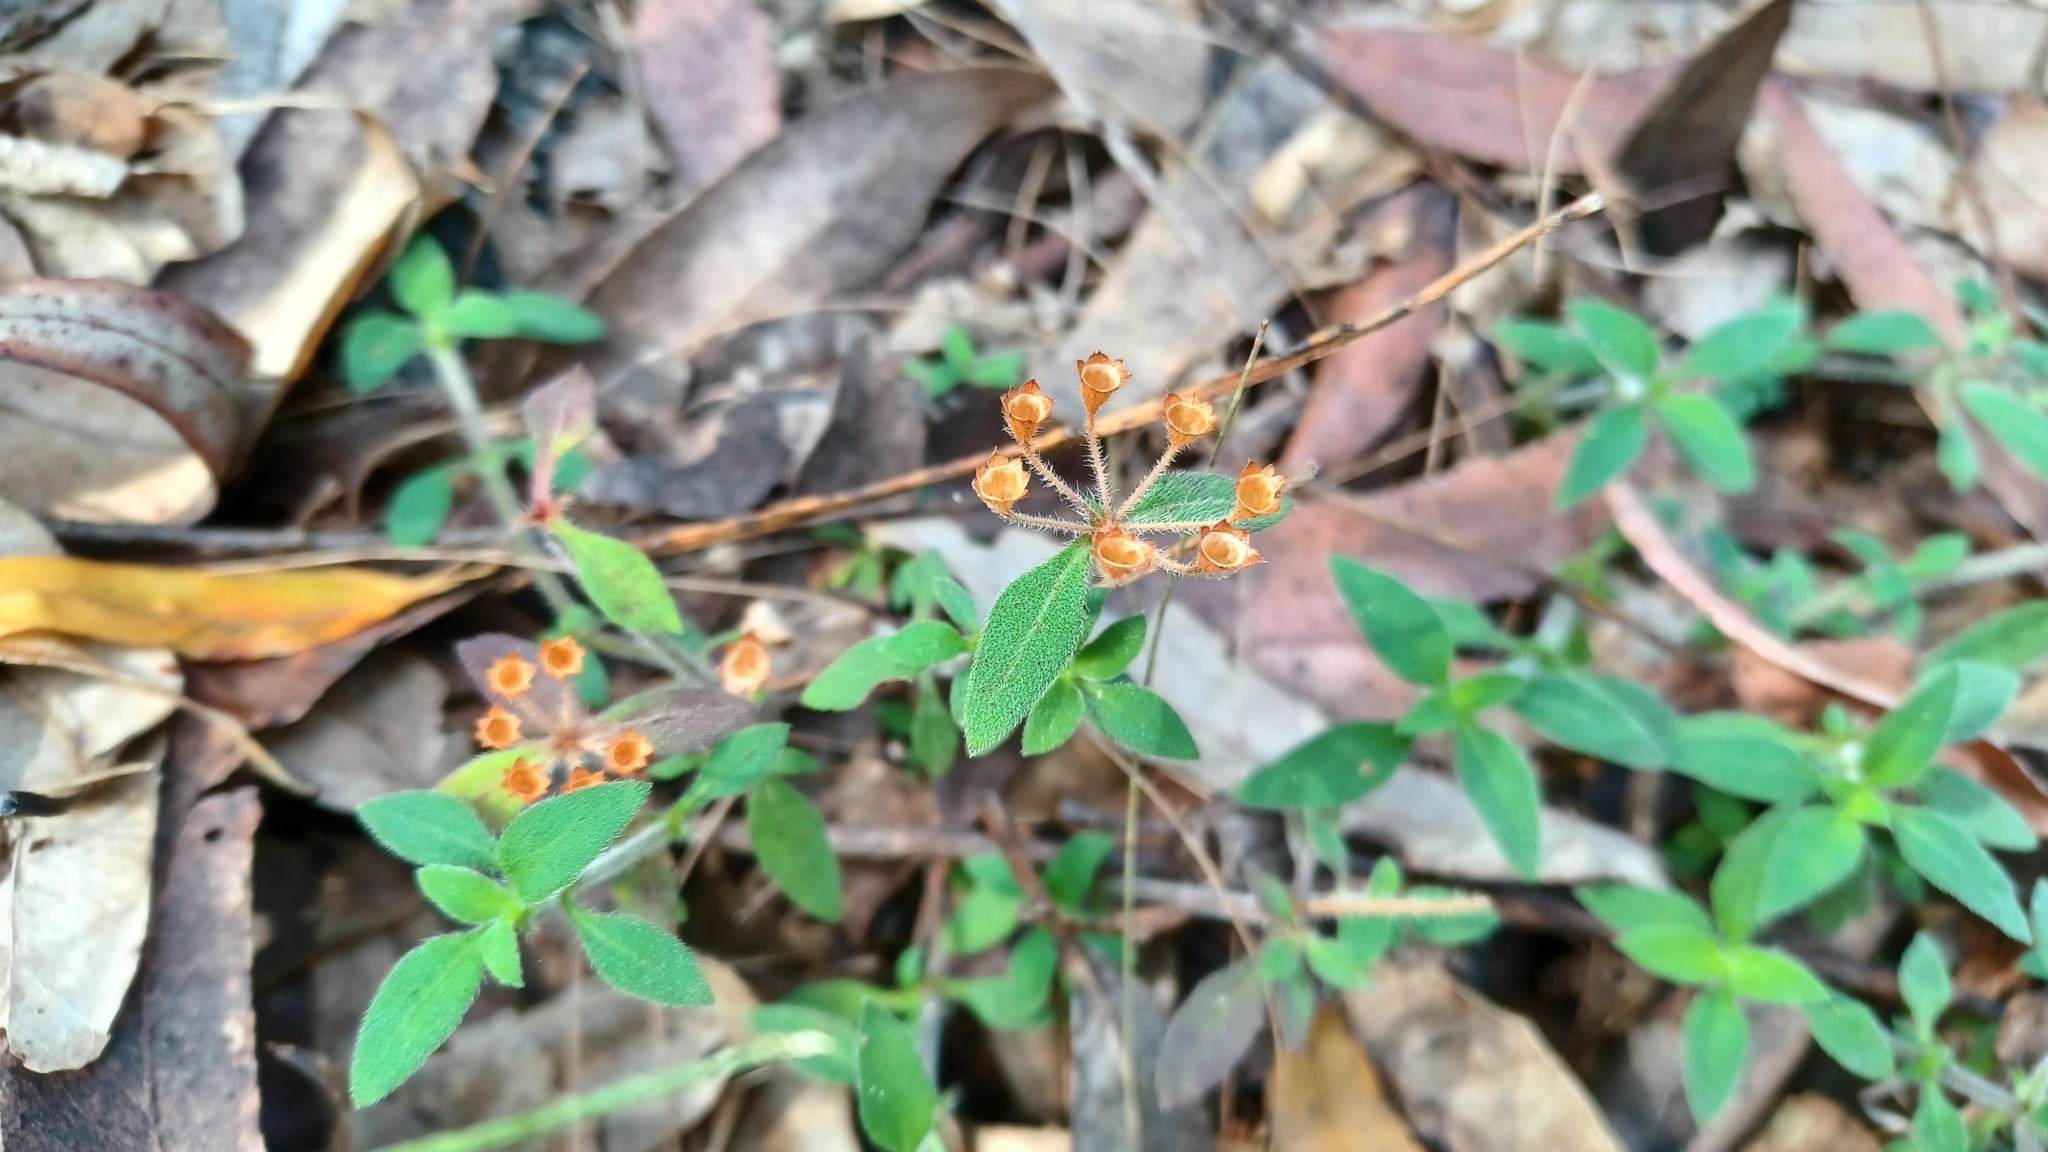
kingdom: Plantae
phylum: Tracheophyta
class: Magnoliopsida
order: Gentianales
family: Rubiaceae
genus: Pomax
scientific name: Pomax umbellata
